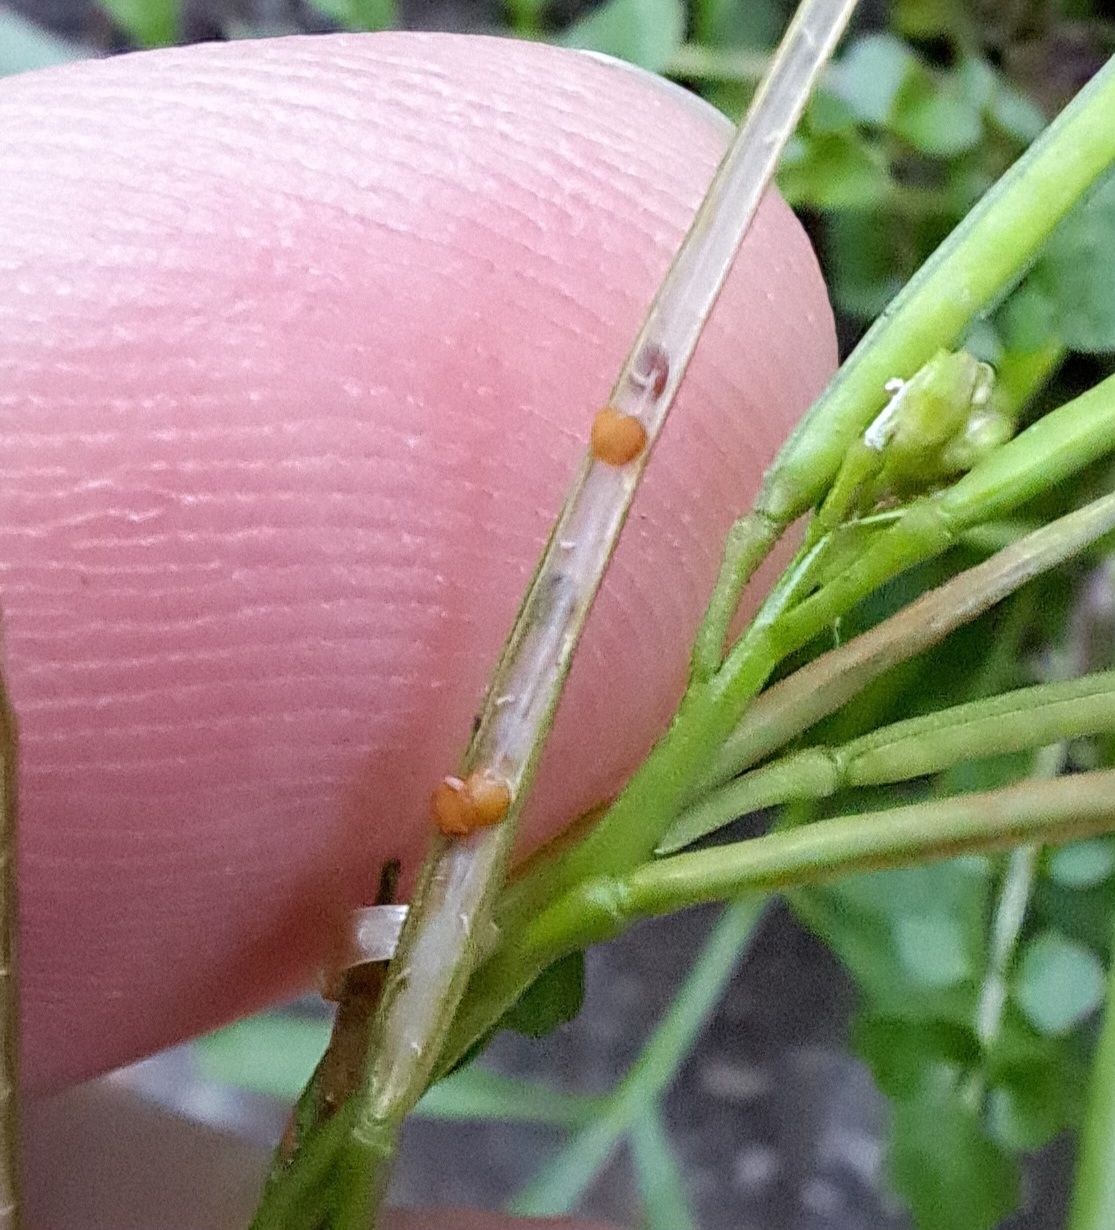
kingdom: Plantae
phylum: Tracheophyta
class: Magnoliopsida
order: Brassicales
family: Brassicaceae
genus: Cardamine
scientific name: Cardamine hirsuta
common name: Hairy bittercress
